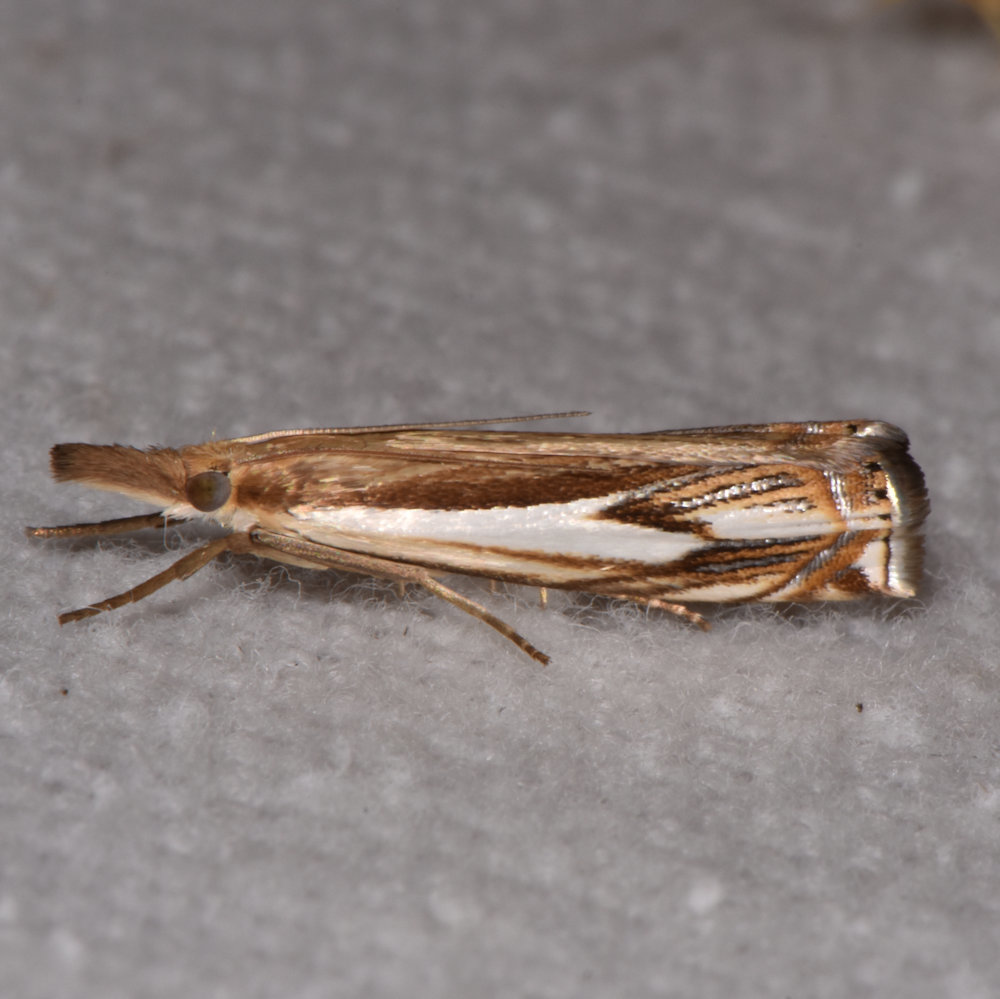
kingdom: Animalia
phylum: Arthropoda
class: Insecta
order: Lepidoptera
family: Crambidae
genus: Crambus
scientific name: Crambus agitatellus
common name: Double-banded grass-veneer
